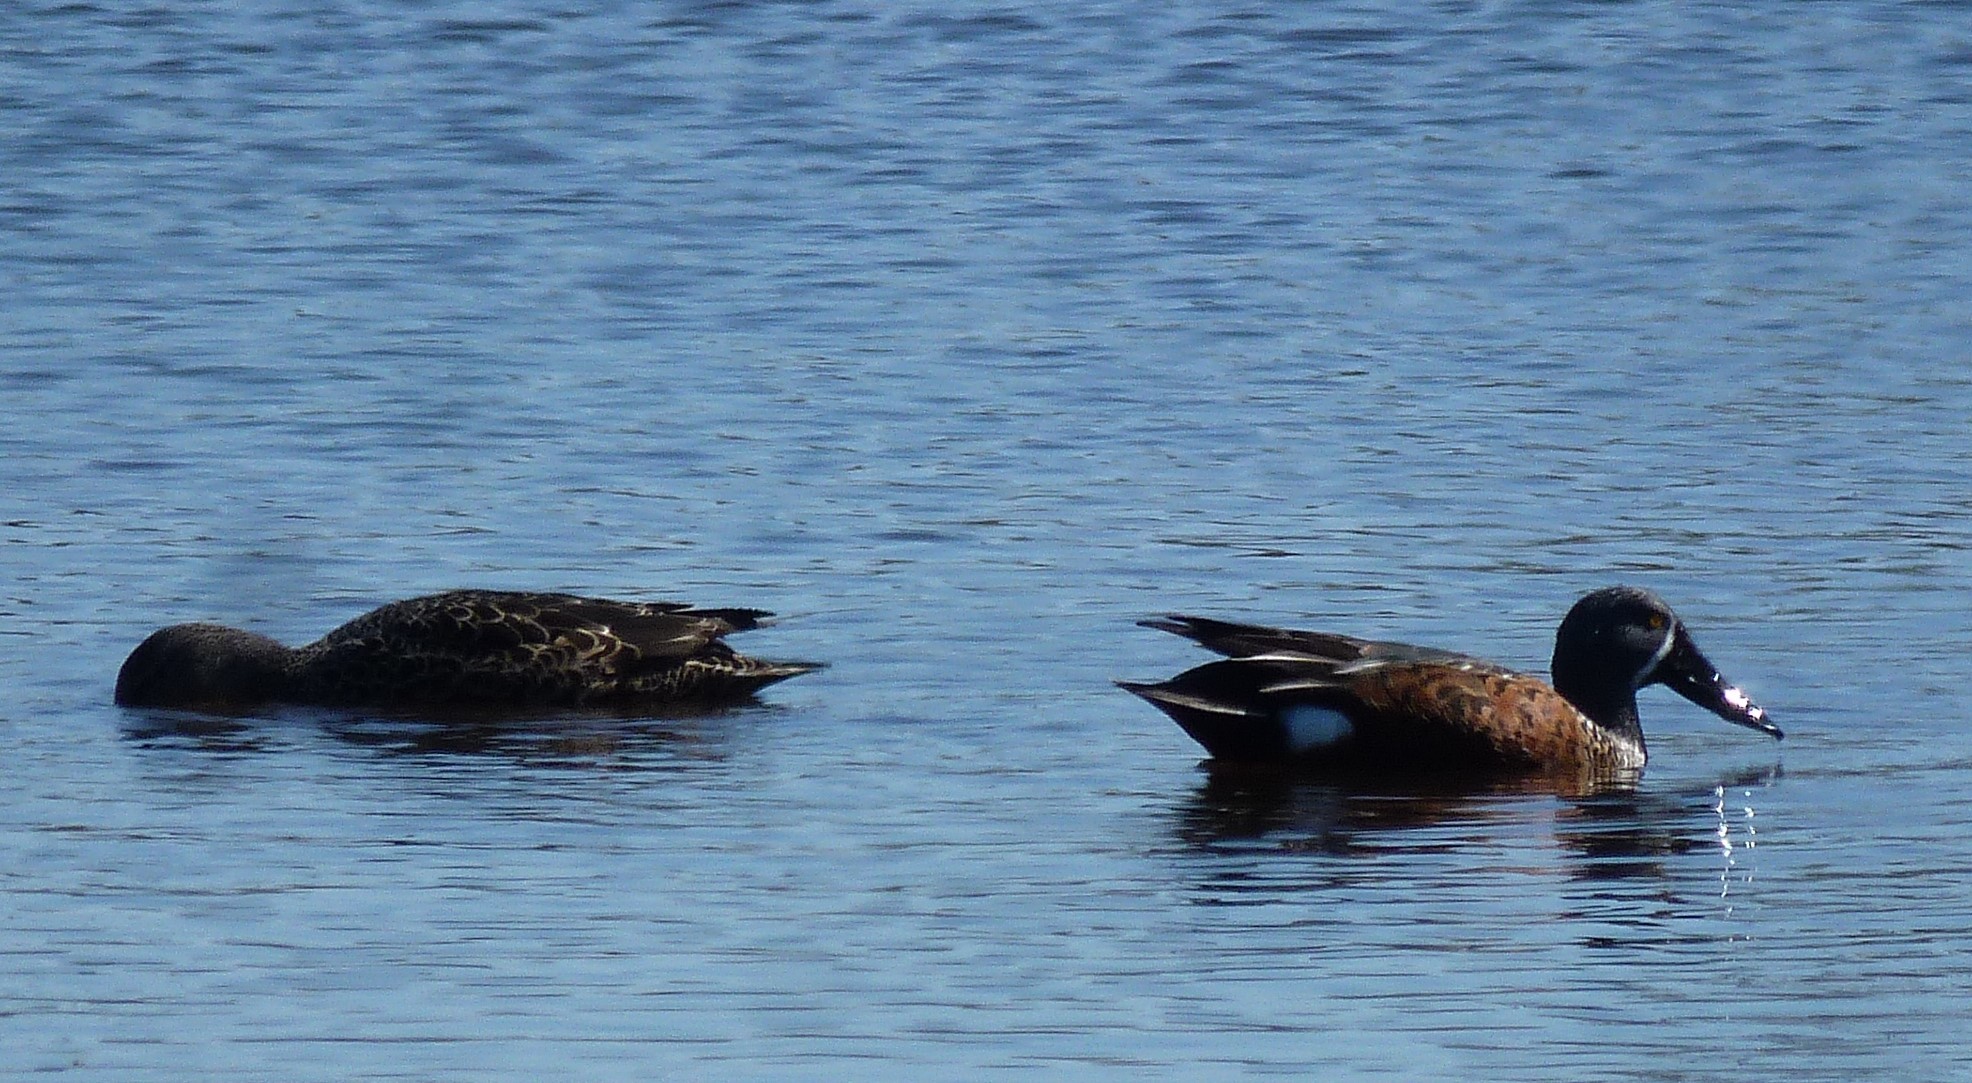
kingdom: Animalia
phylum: Chordata
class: Aves
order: Anseriformes
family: Anatidae
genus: Spatula
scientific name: Spatula rhynchotis
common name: Australian shoveler
